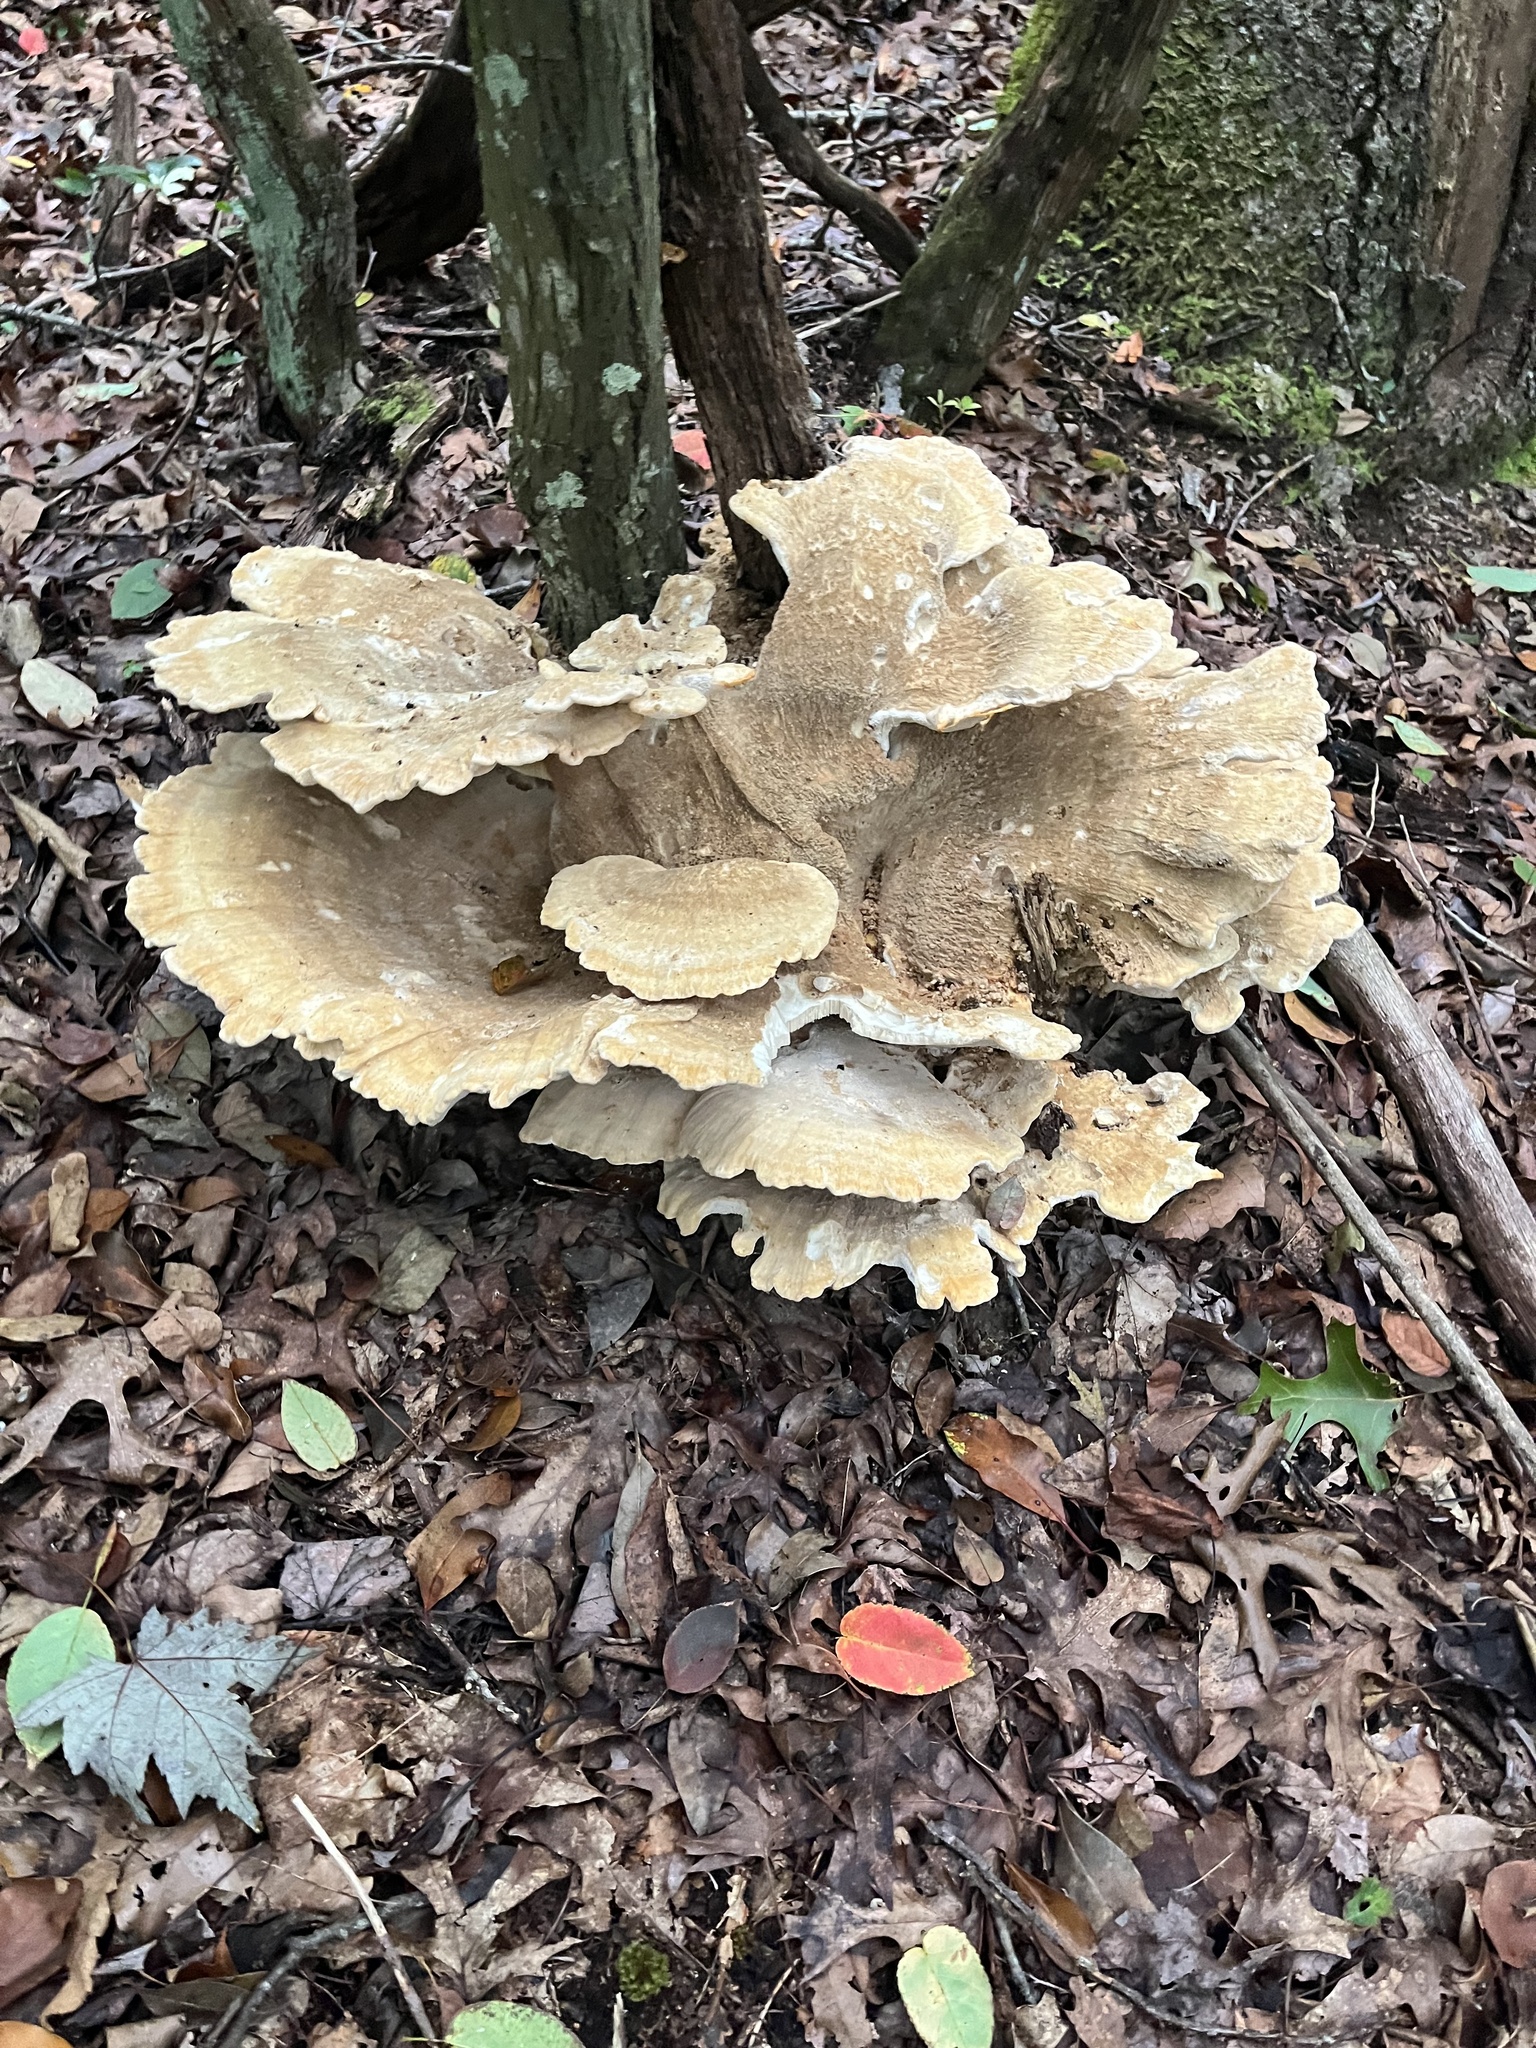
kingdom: Fungi
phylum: Basidiomycota
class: Agaricomycetes
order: Russulales
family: Bondarzewiaceae
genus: Bondarzewia
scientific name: Bondarzewia berkeleyi
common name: Berkeley's polypore
